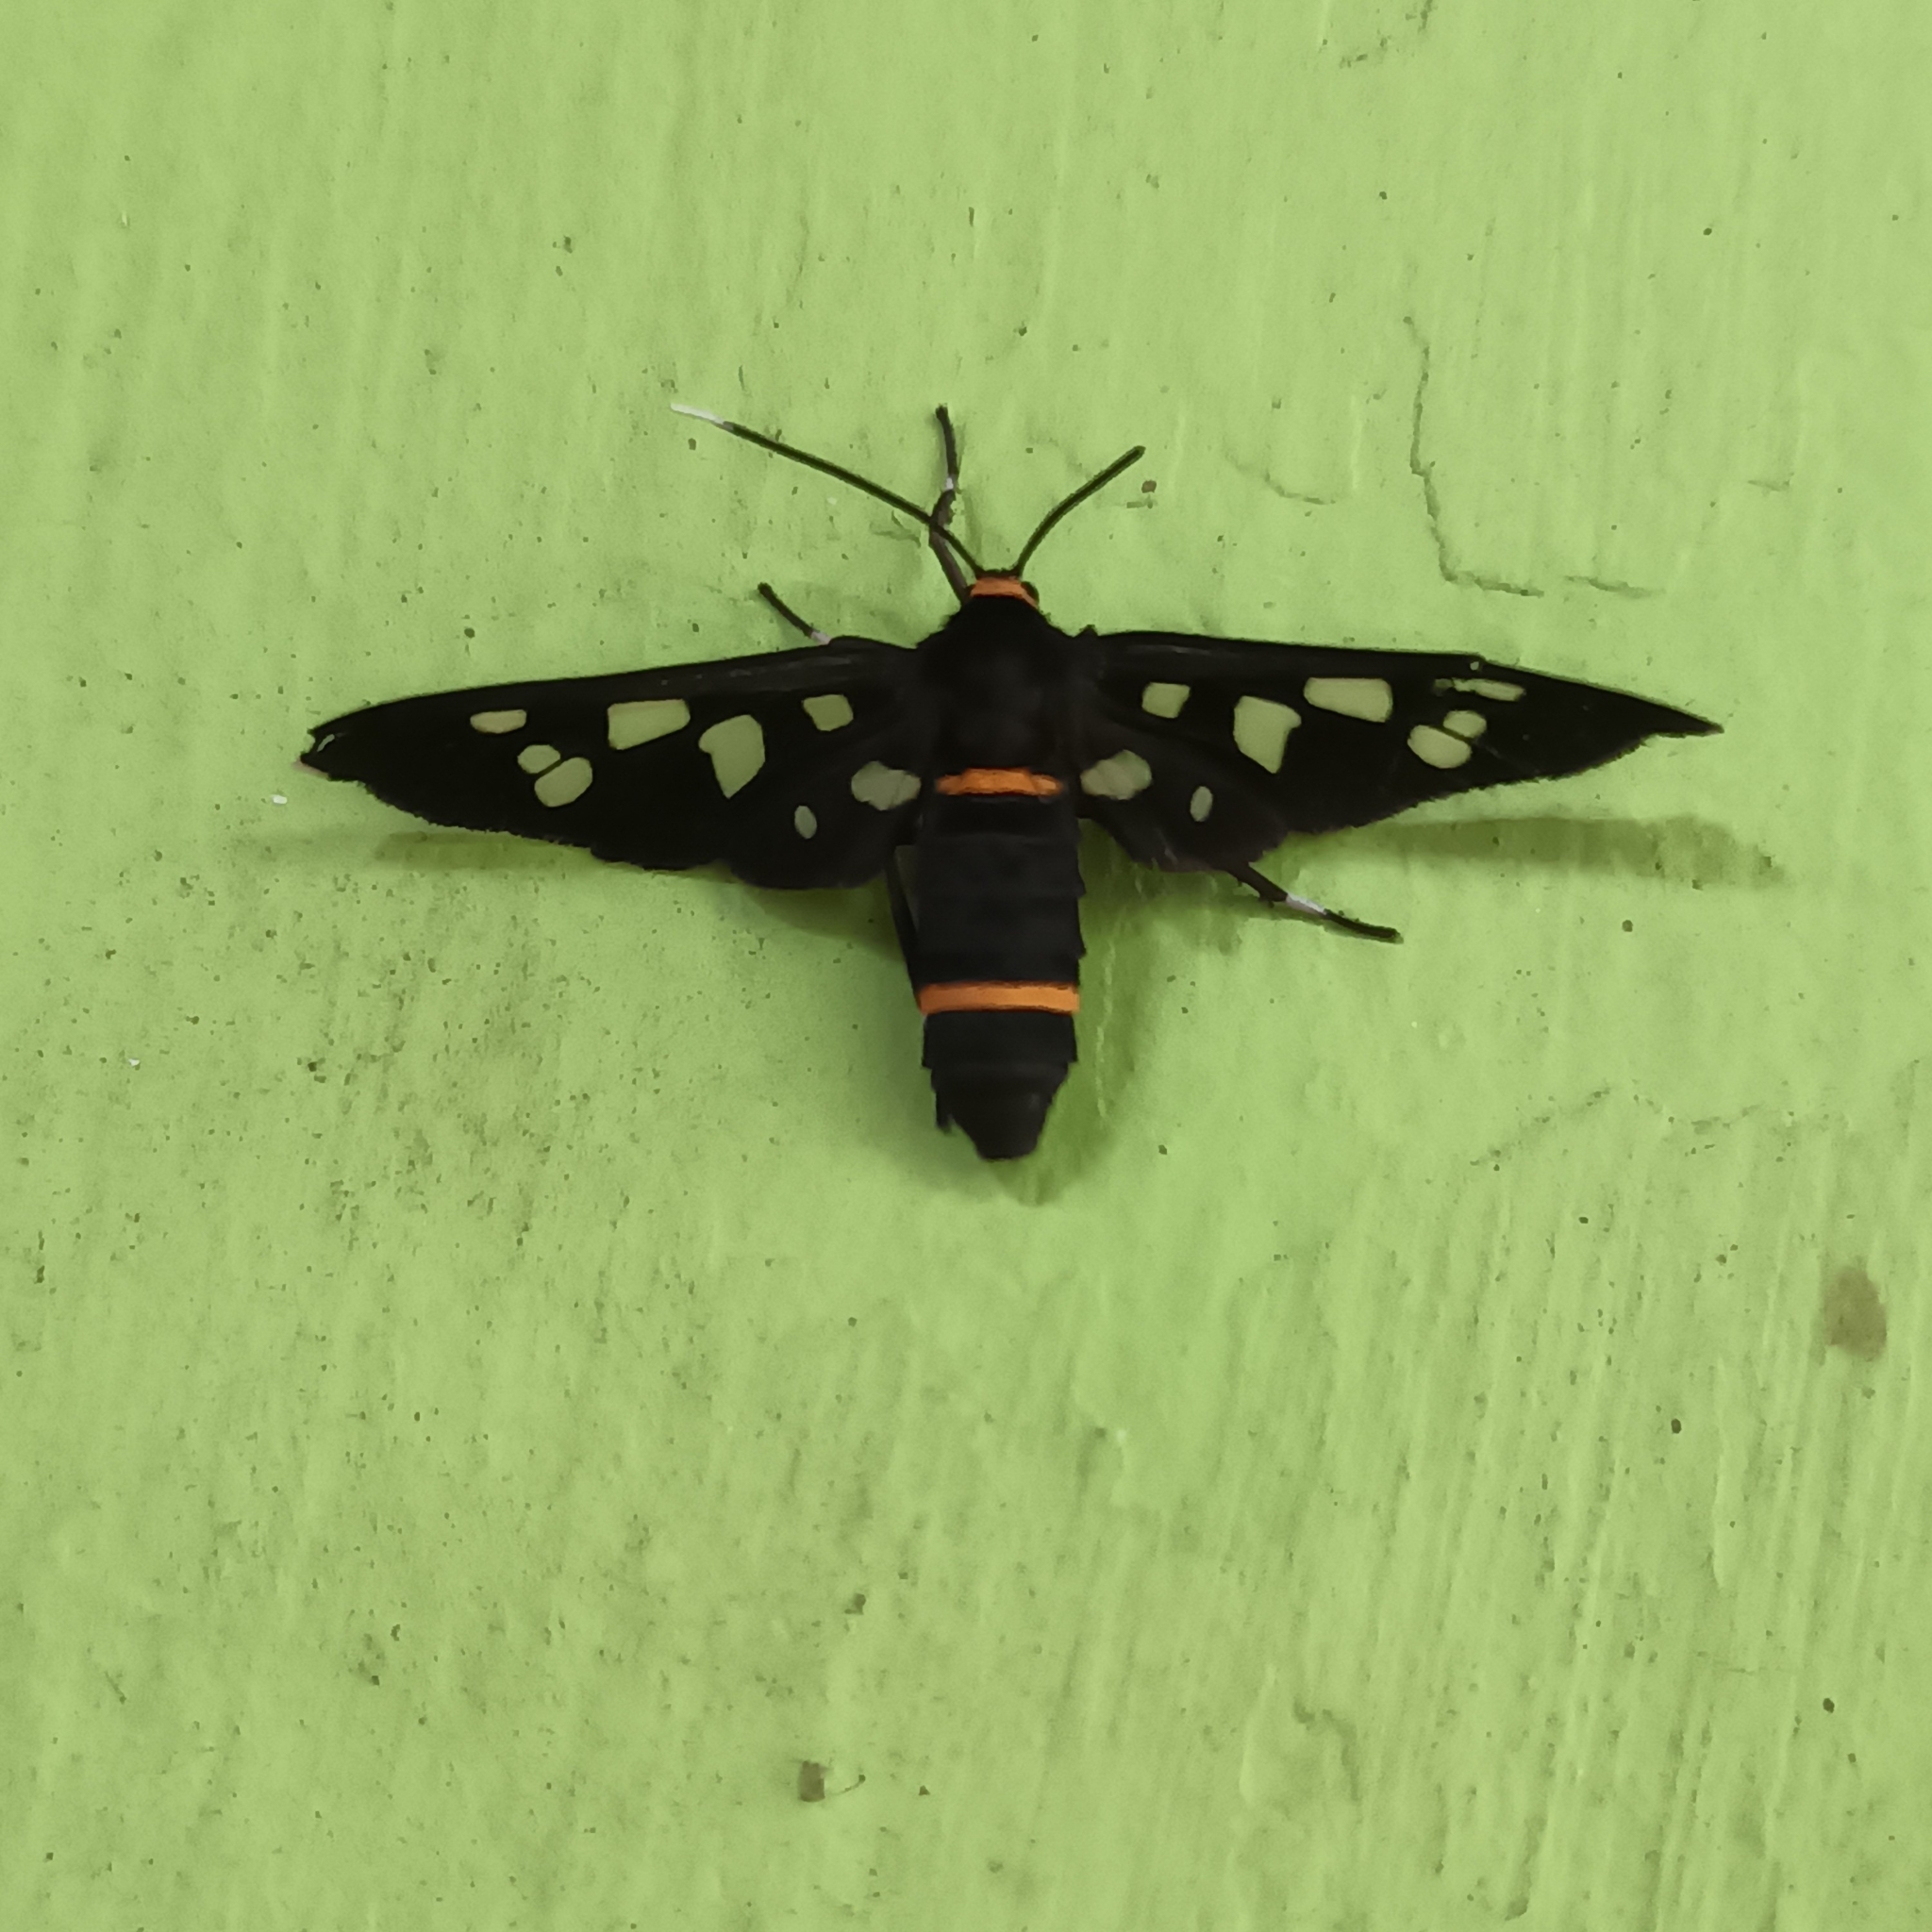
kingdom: Animalia
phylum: Arthropoda
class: Insecta
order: Lepidoptera
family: Erebidae
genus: Amata
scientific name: Amata cyssea
